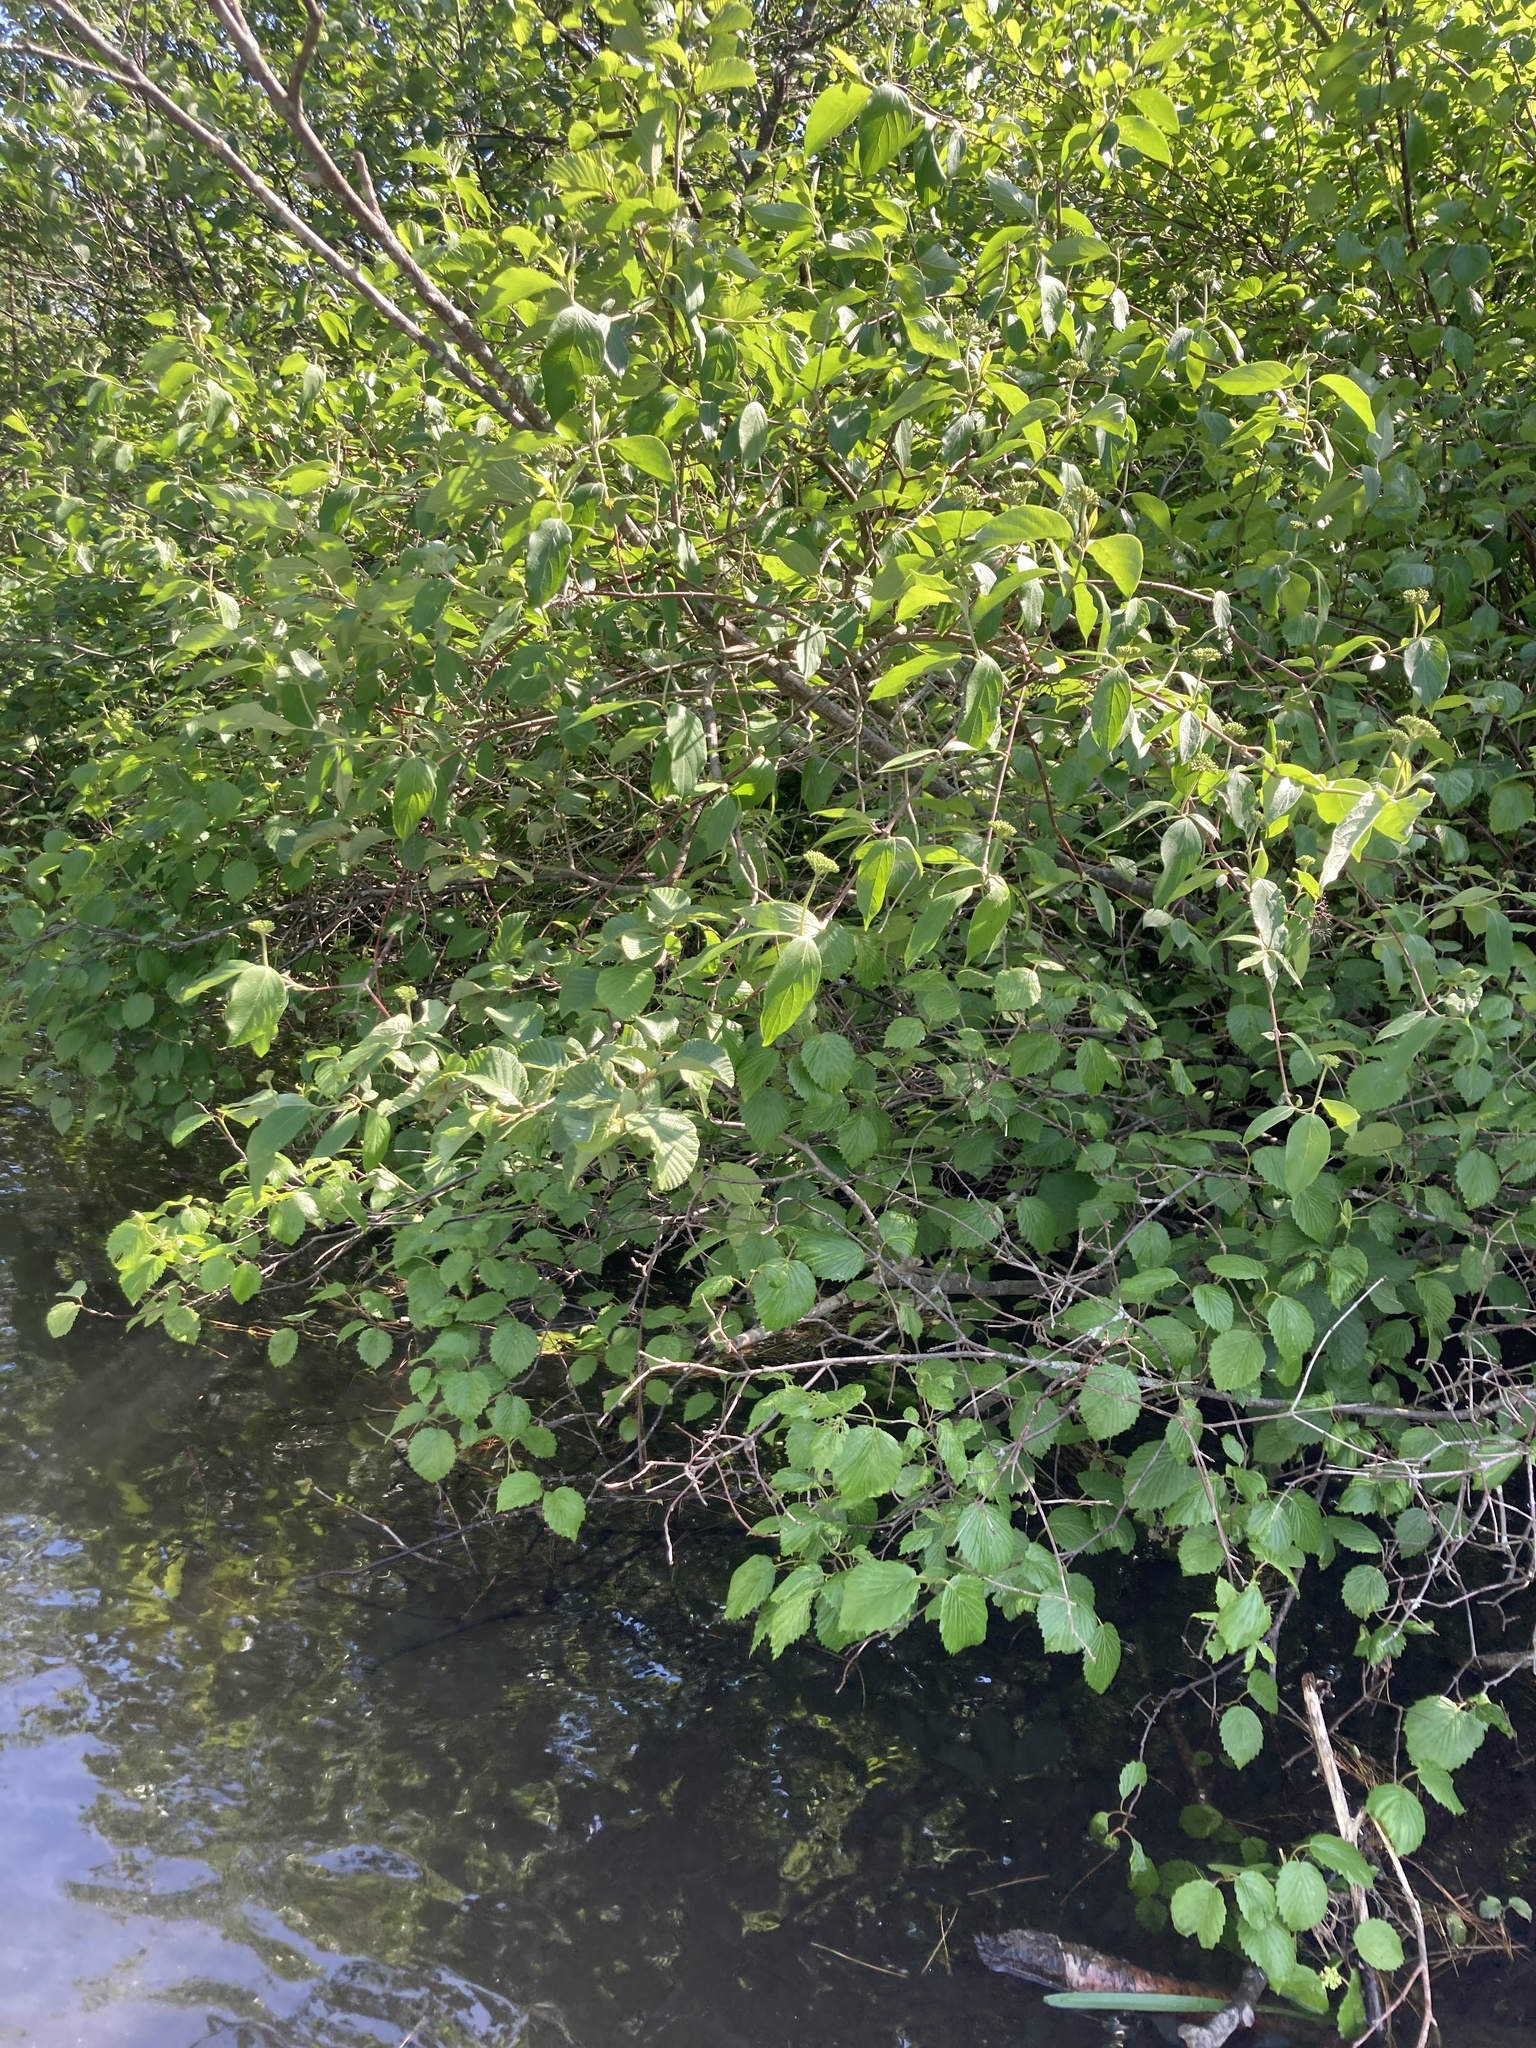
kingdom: Plantae
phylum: Tracheophyta
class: Magnoliopsida
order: Dipsacales
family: Viburnaceae
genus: Viburnum
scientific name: Viburnum dentatum
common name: Arrow-wood
